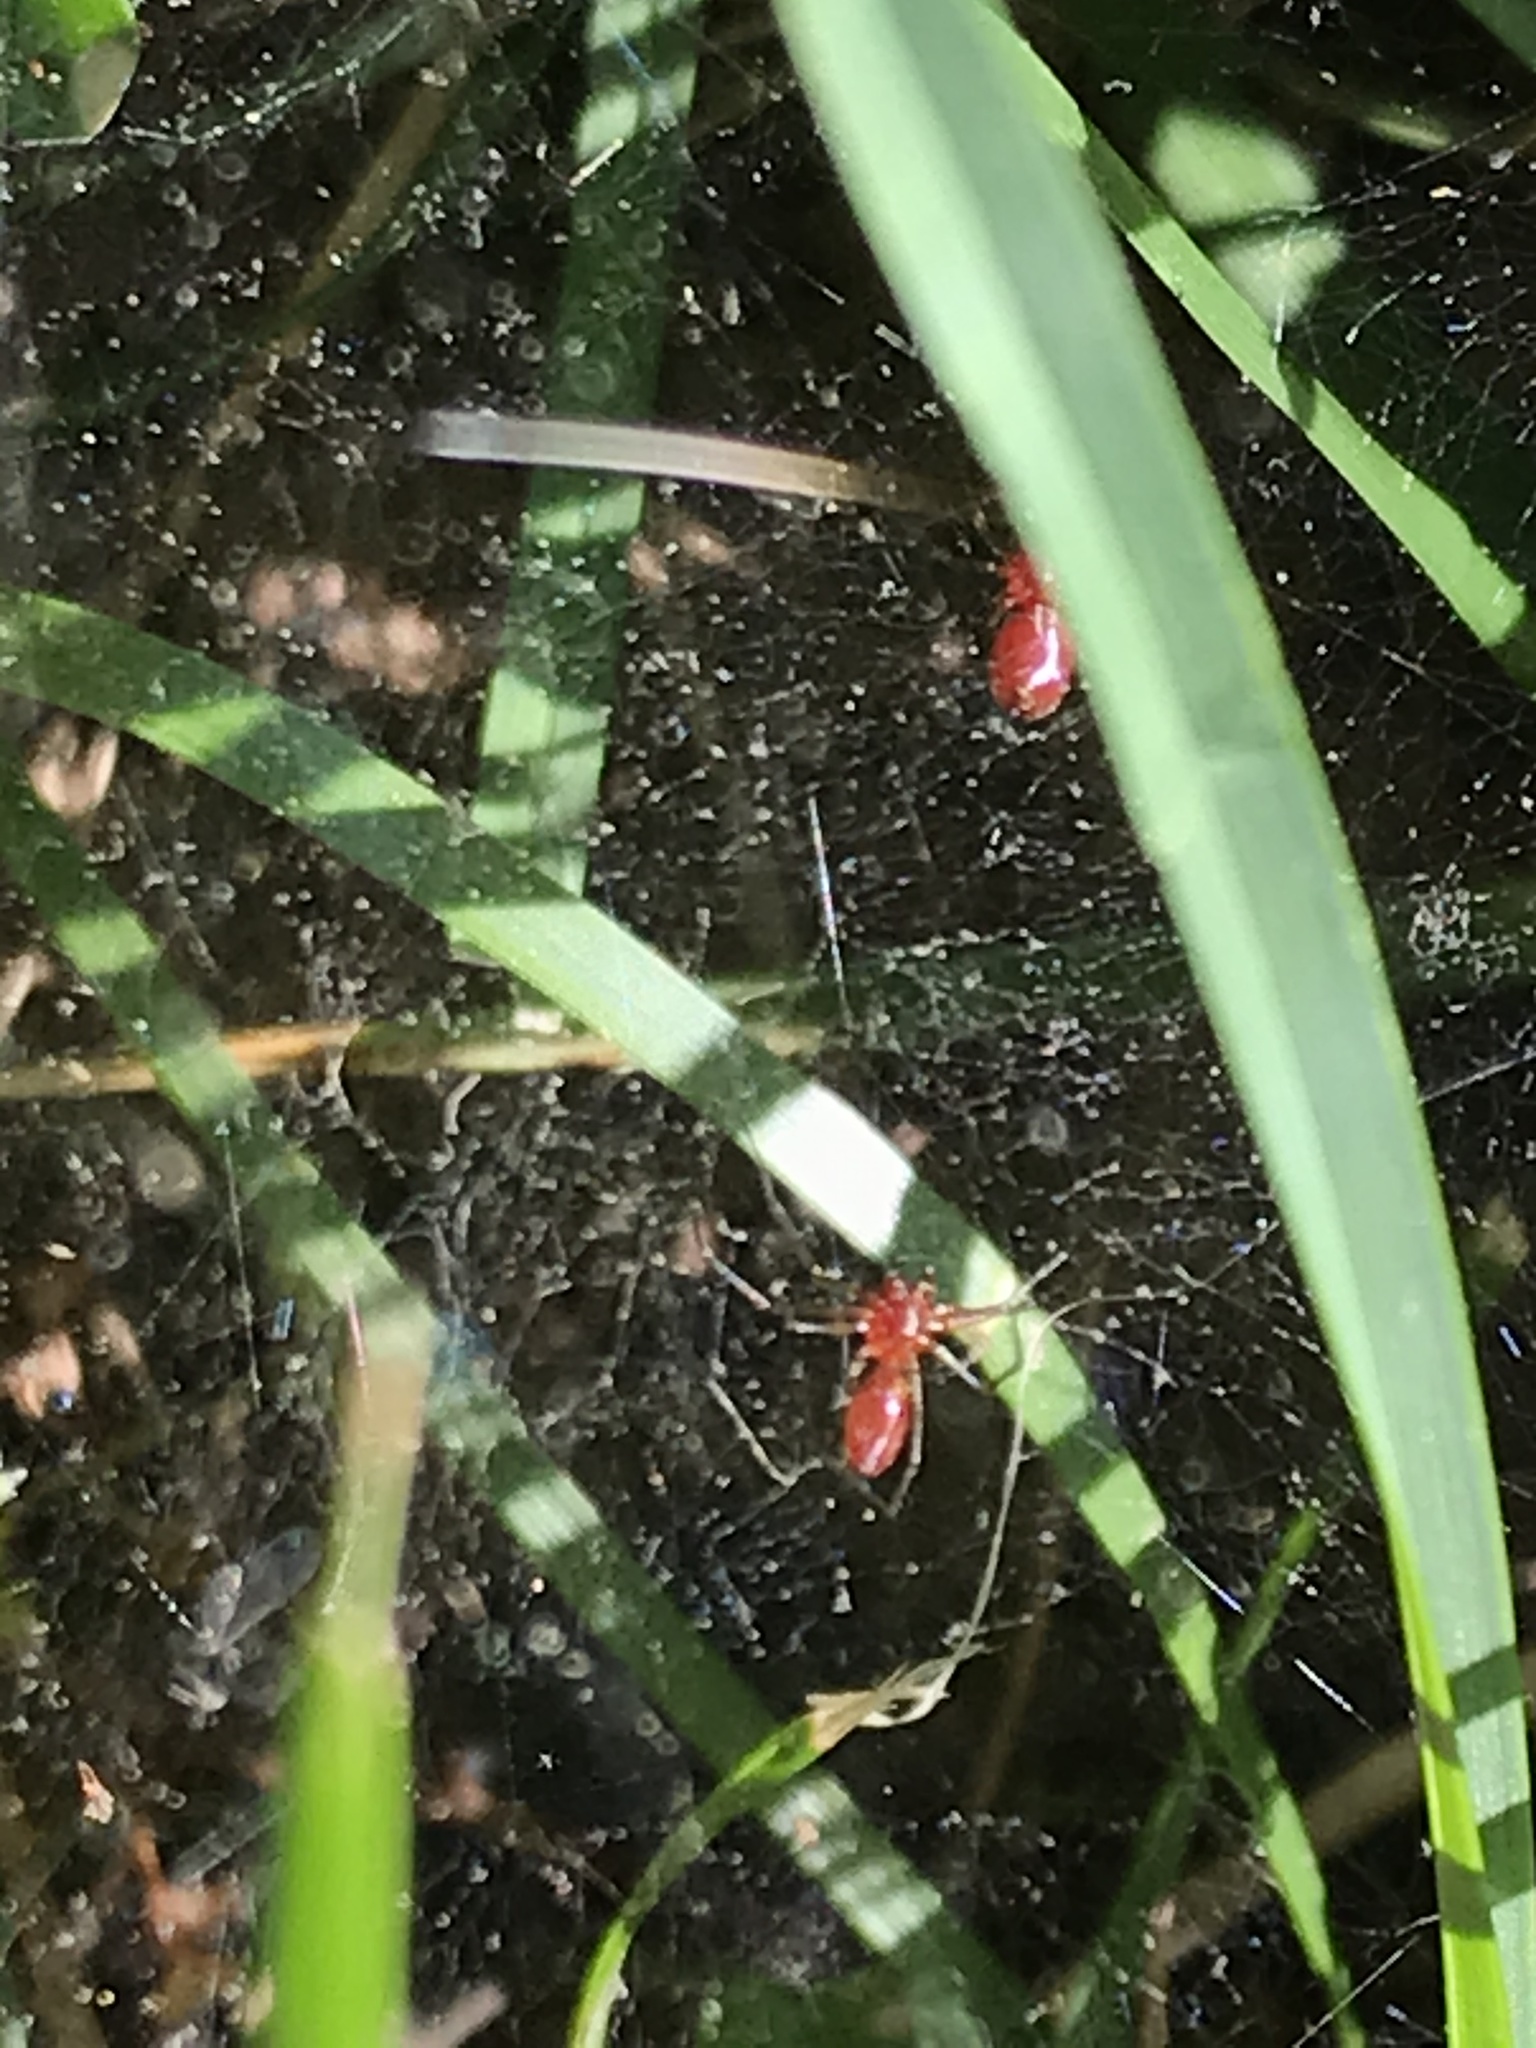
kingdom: Animalia
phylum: Arthropoda
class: Arachnida
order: Araneae
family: Linyphiidae
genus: Florinda
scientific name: Florinda coccinea
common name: Black-tailed red sheetweaver
